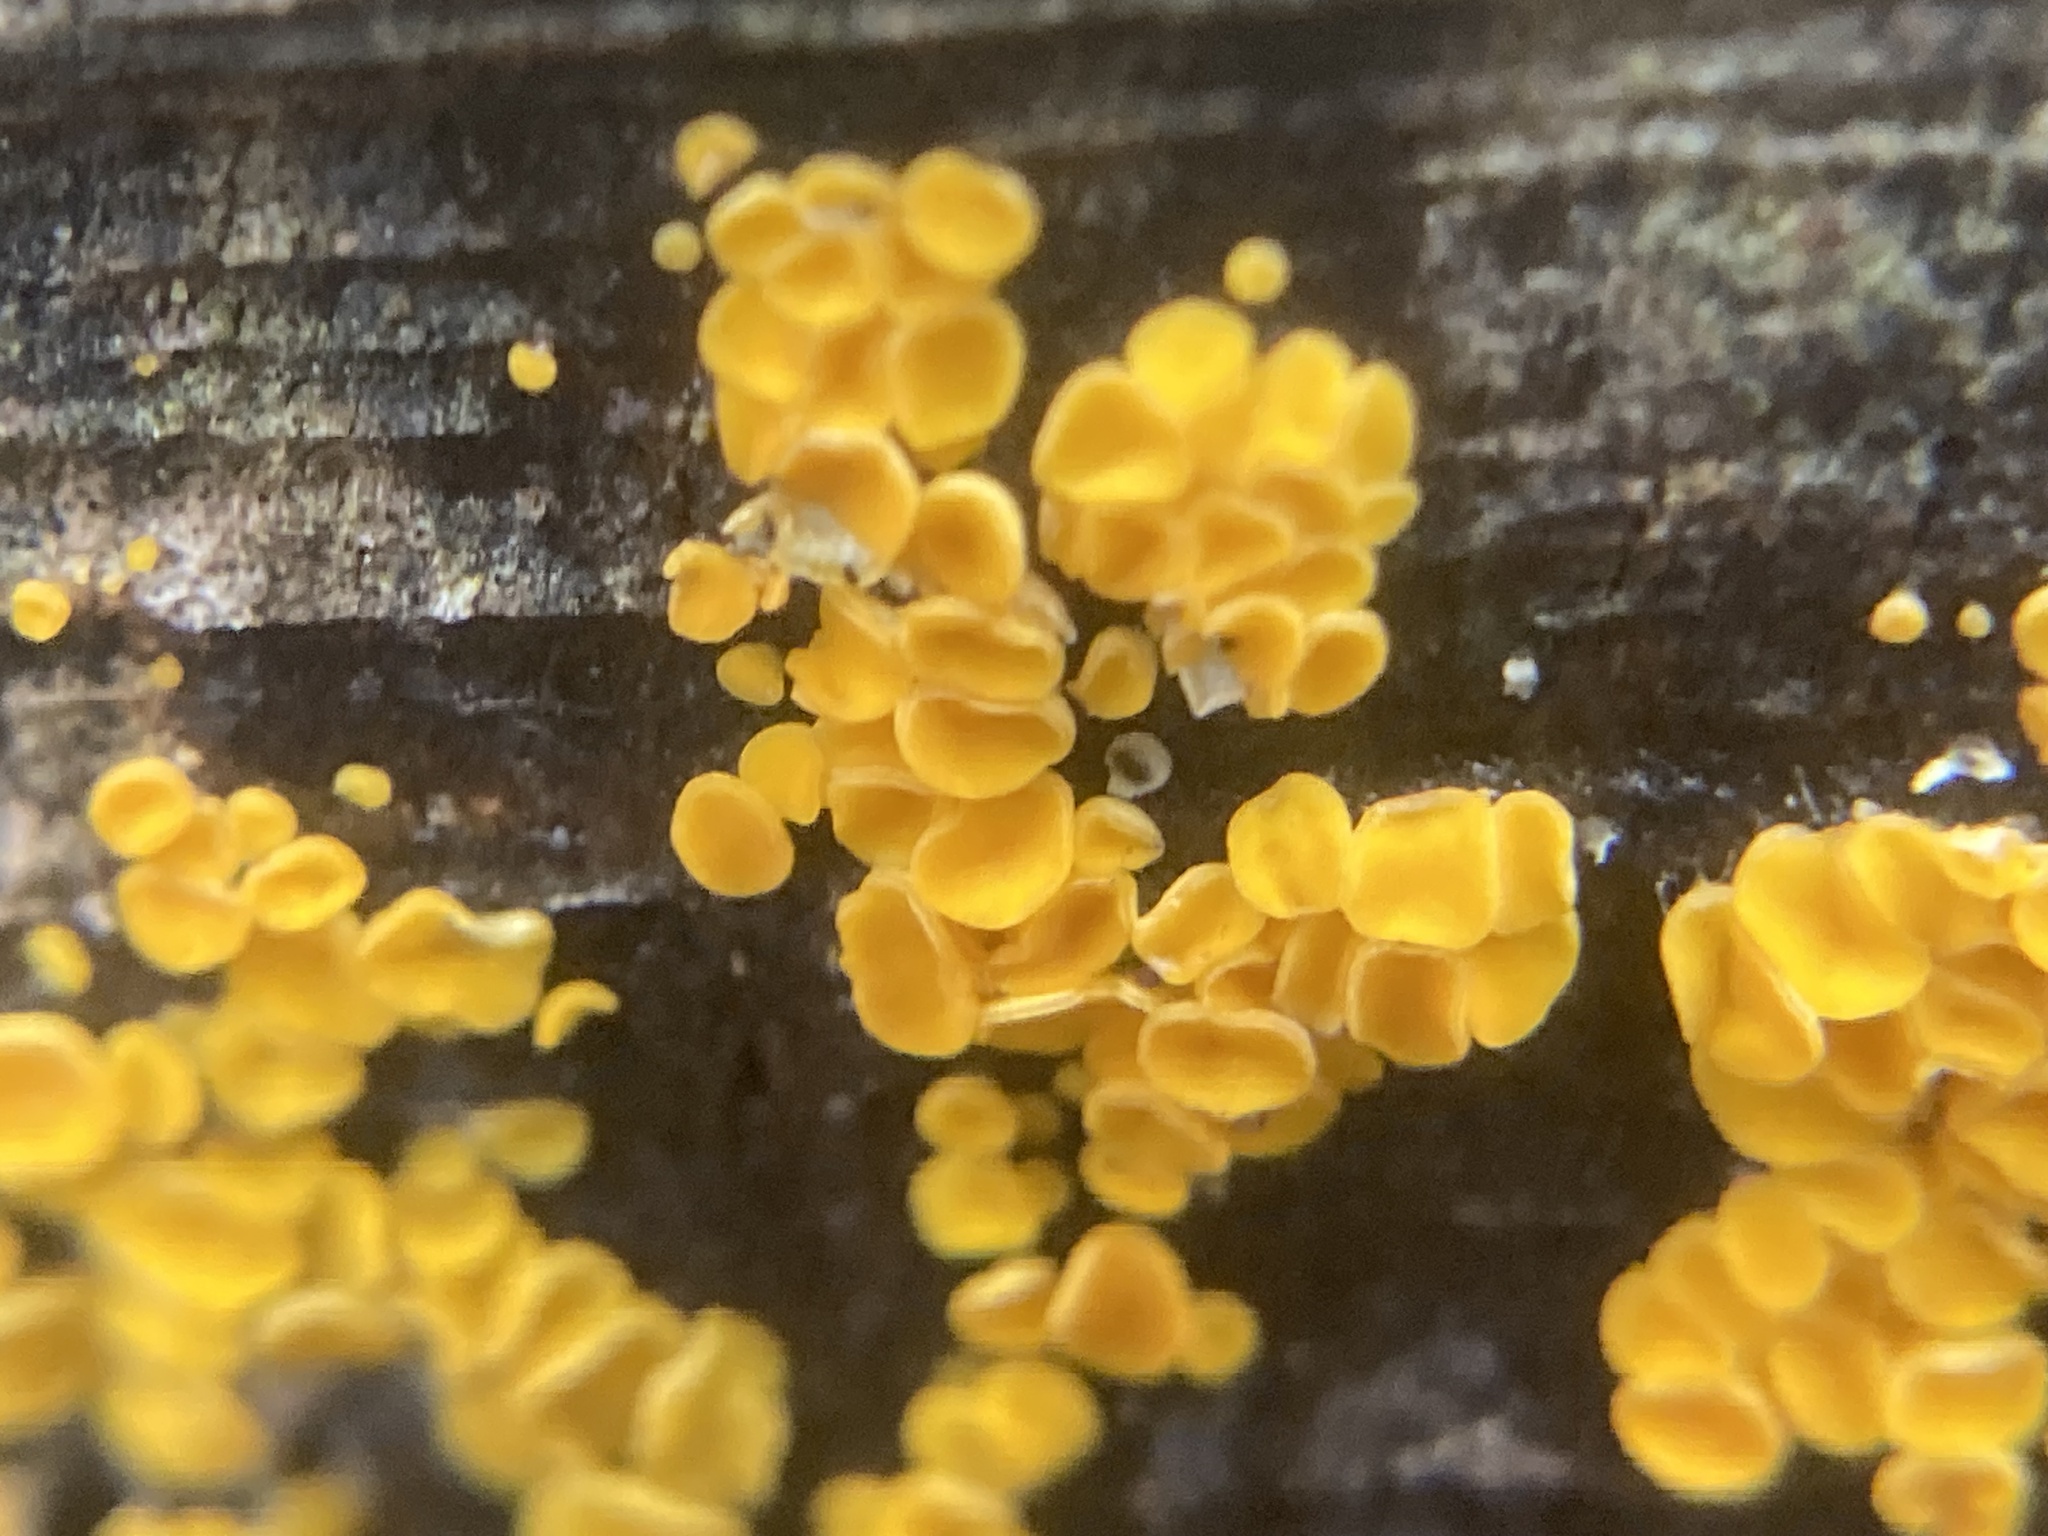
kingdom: Fungi
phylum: Ascomycota
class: Leotiomycetes
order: Helotiales
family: Pezizellaceae
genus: Calycina
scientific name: Calycina citrina
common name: Yellow fairy cups
